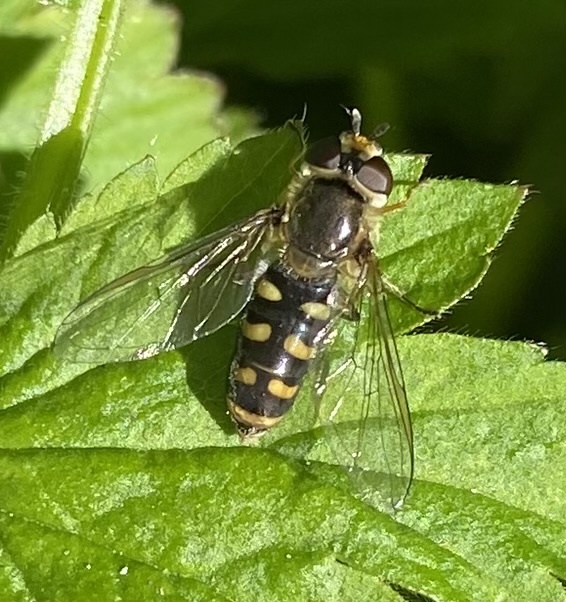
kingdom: Animalia
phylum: Arthropoda
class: Insecta
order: Diptera
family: Syrphidae
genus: Eupeodes
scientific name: Eupeodes luniger
